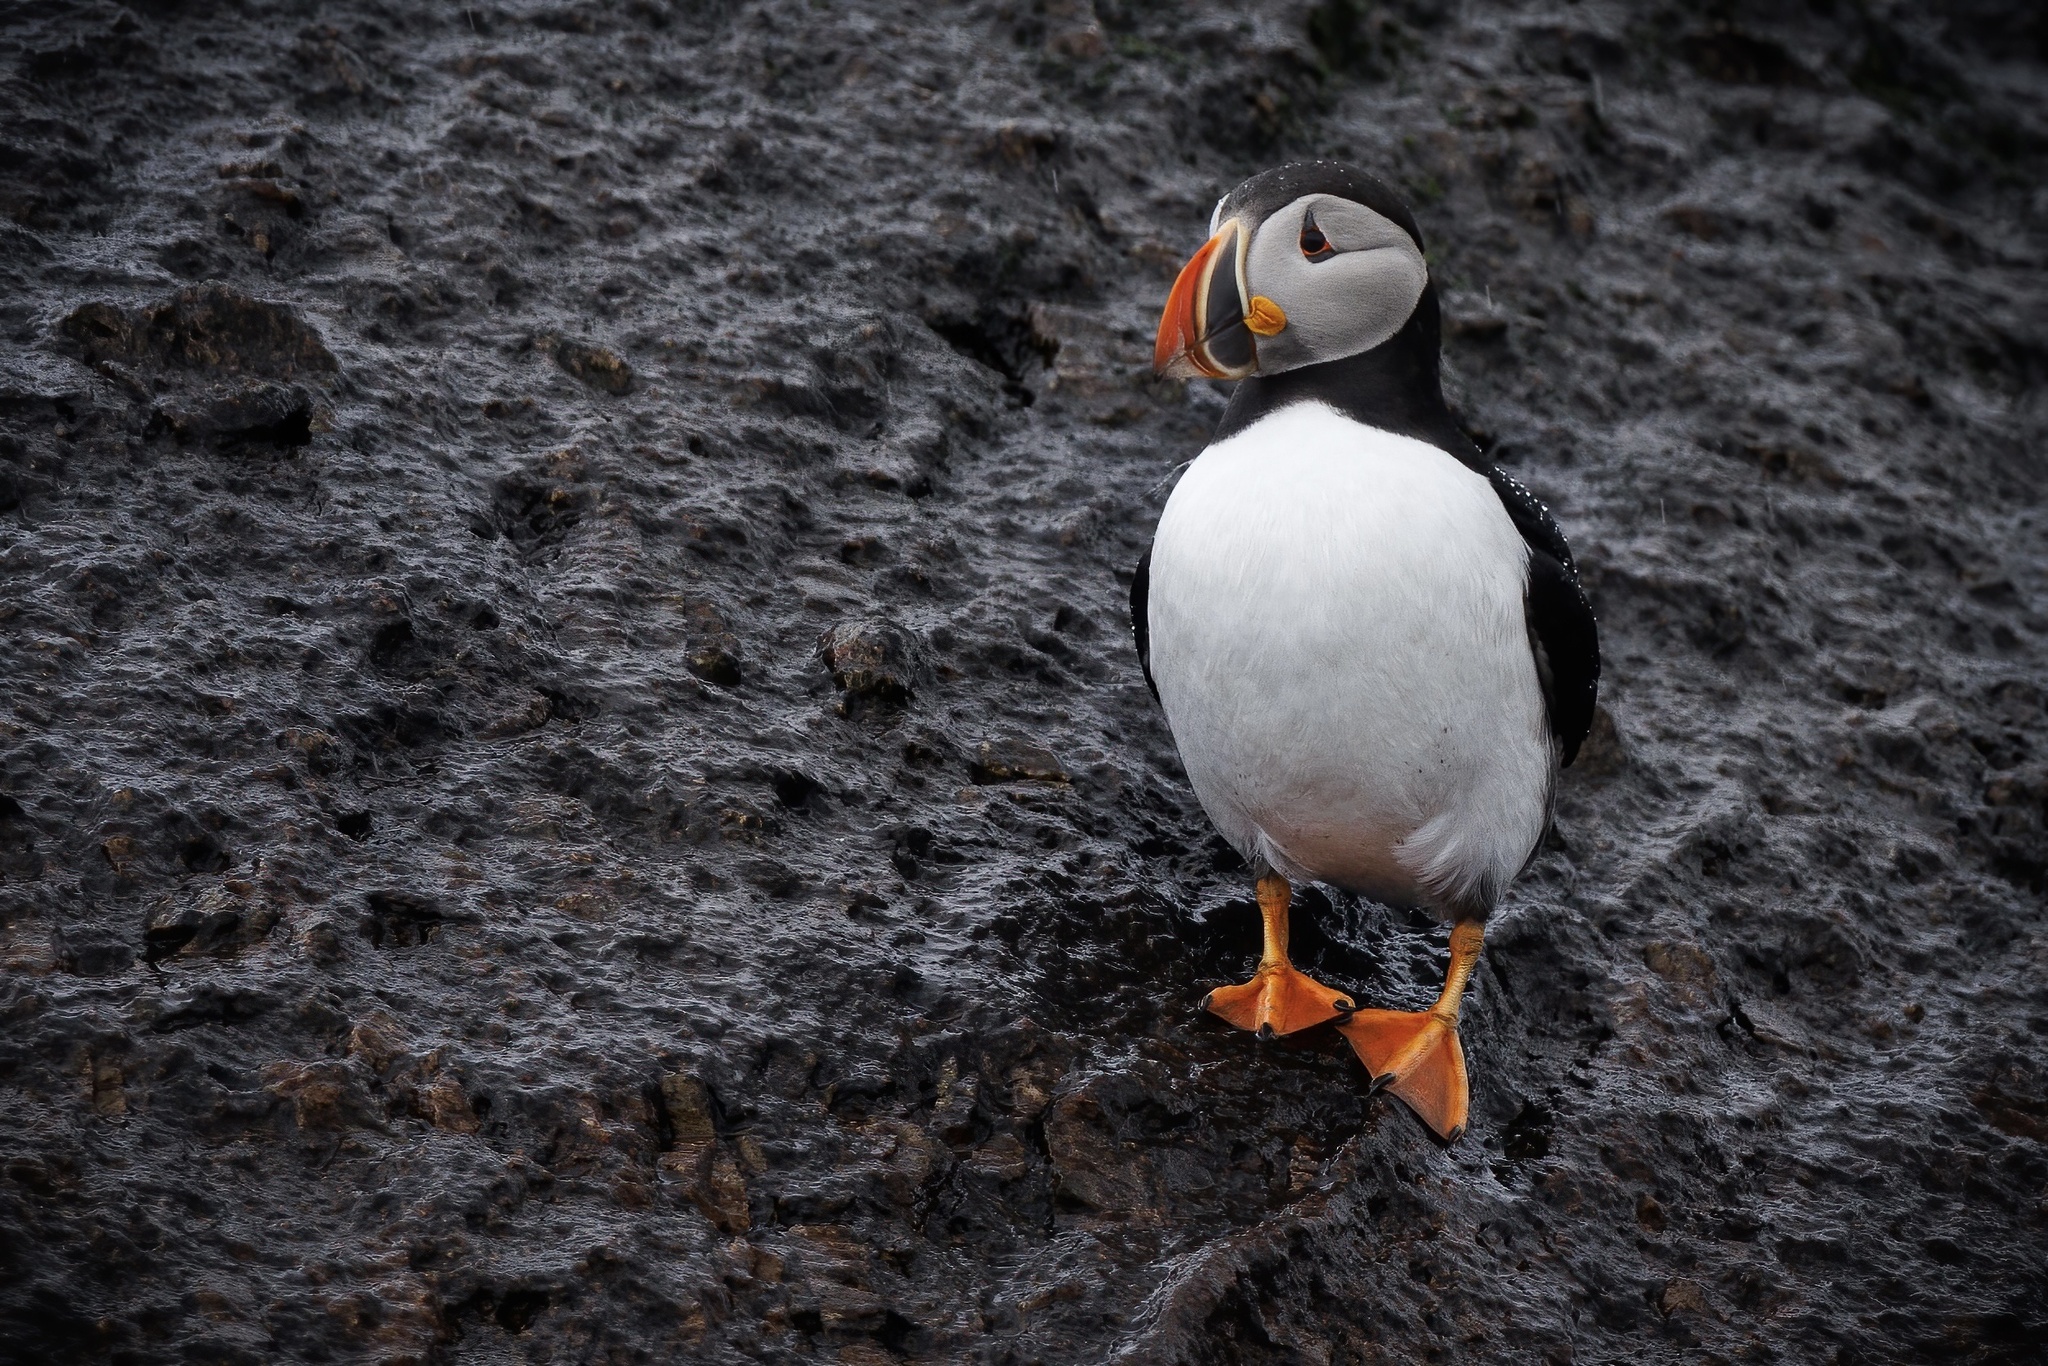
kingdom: Animalia
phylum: Chordata
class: Aves
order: Charadriiformes
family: Alcidae
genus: Fratercula
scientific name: Fratercula arctica
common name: Atlantic puffin
